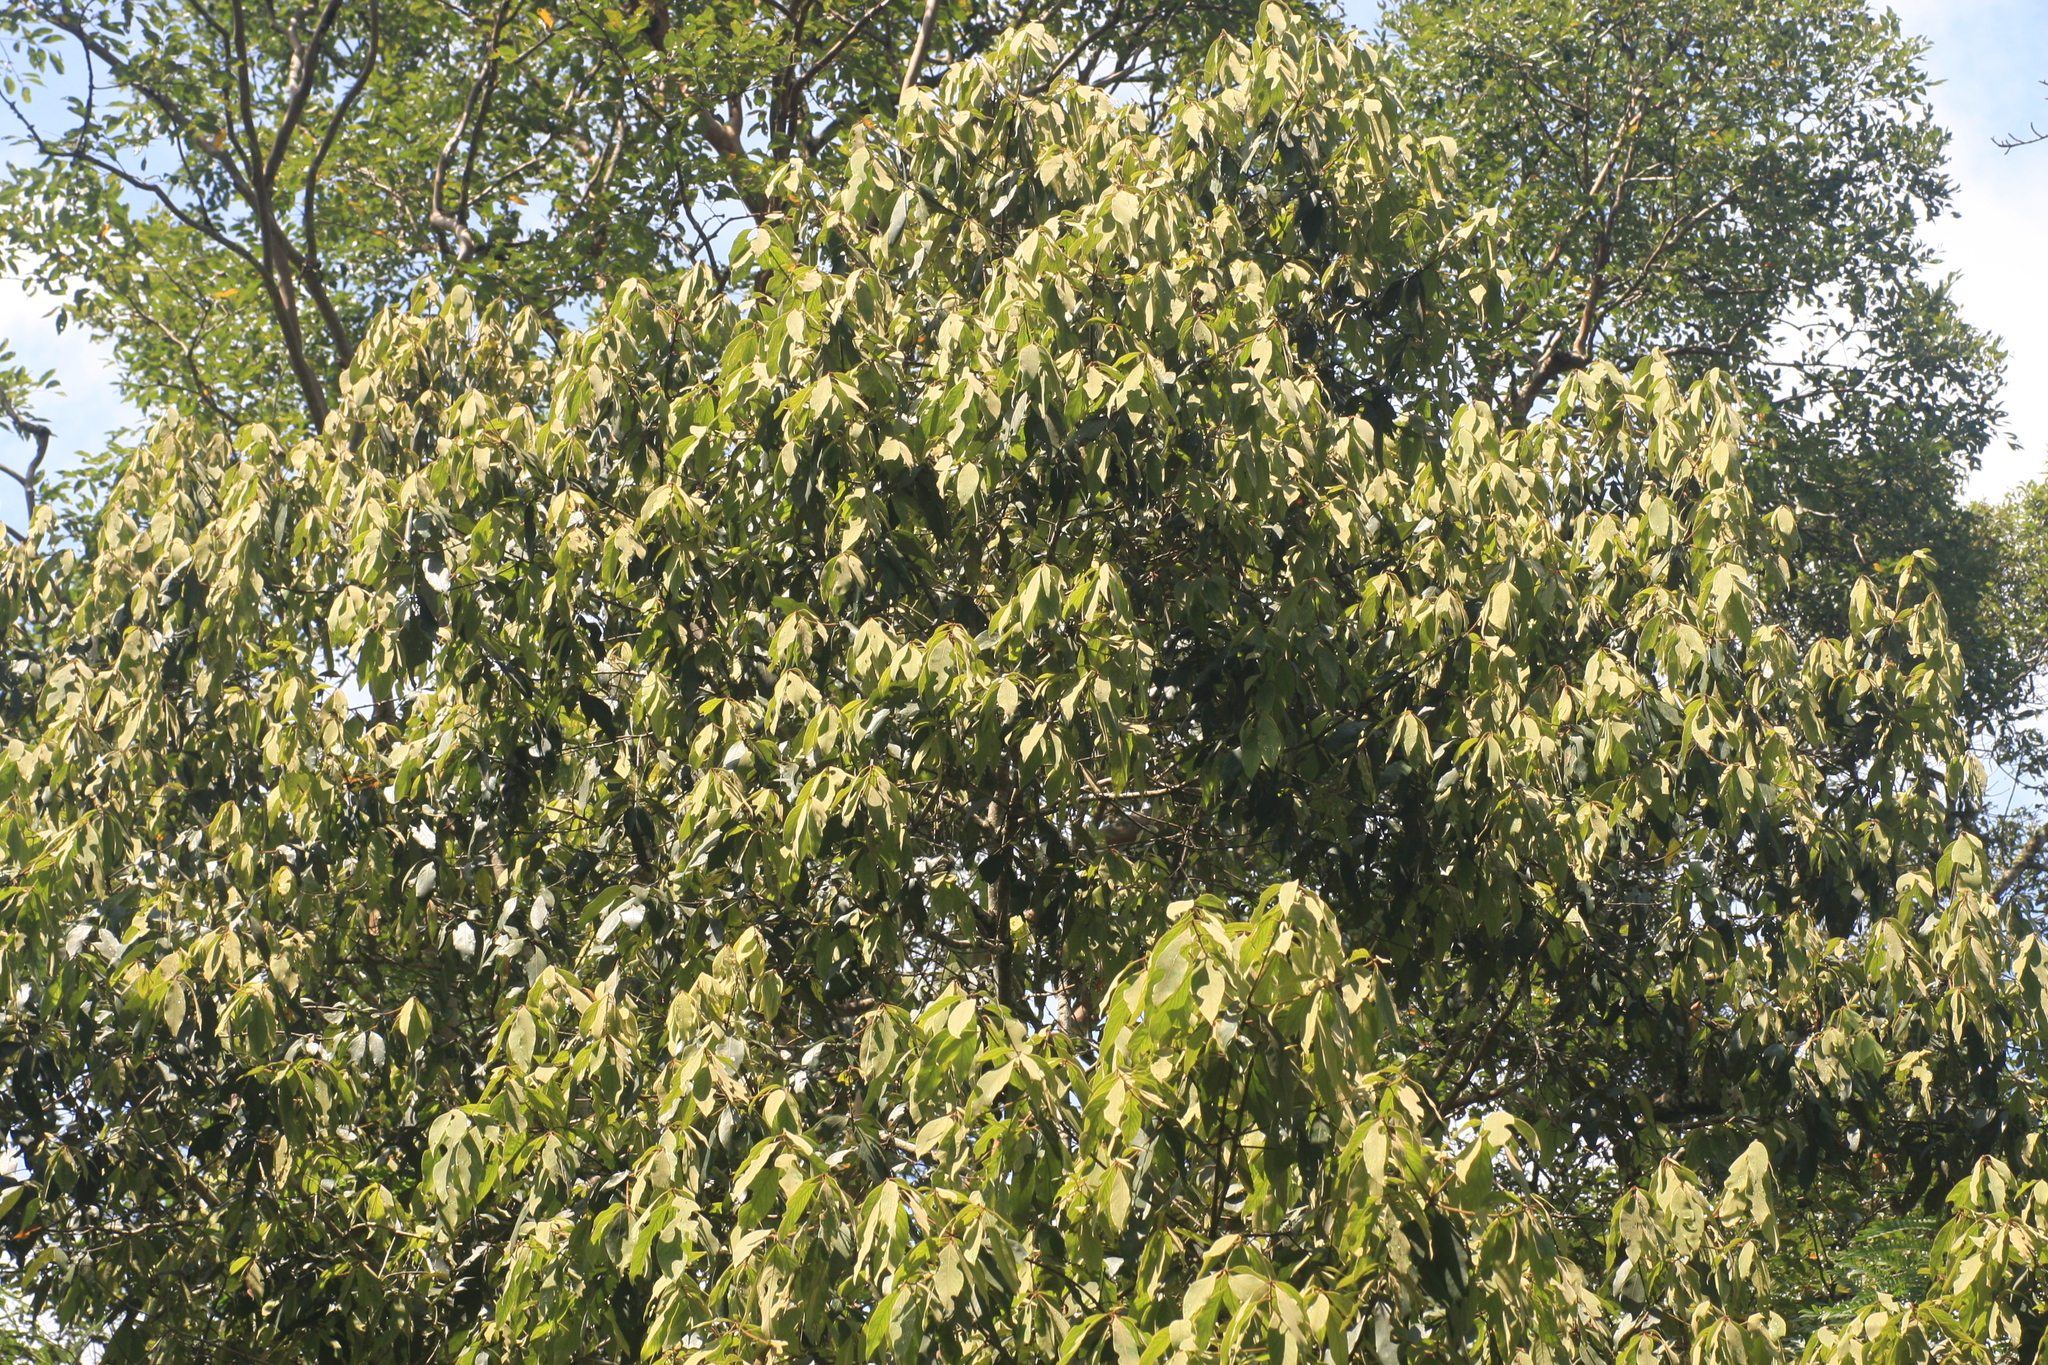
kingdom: Plantae
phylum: Tracheophyta
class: Magnoliopsida
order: Laurales
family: Lauraceae
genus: Actinodaphne
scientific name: Actinodaphne wightiana
